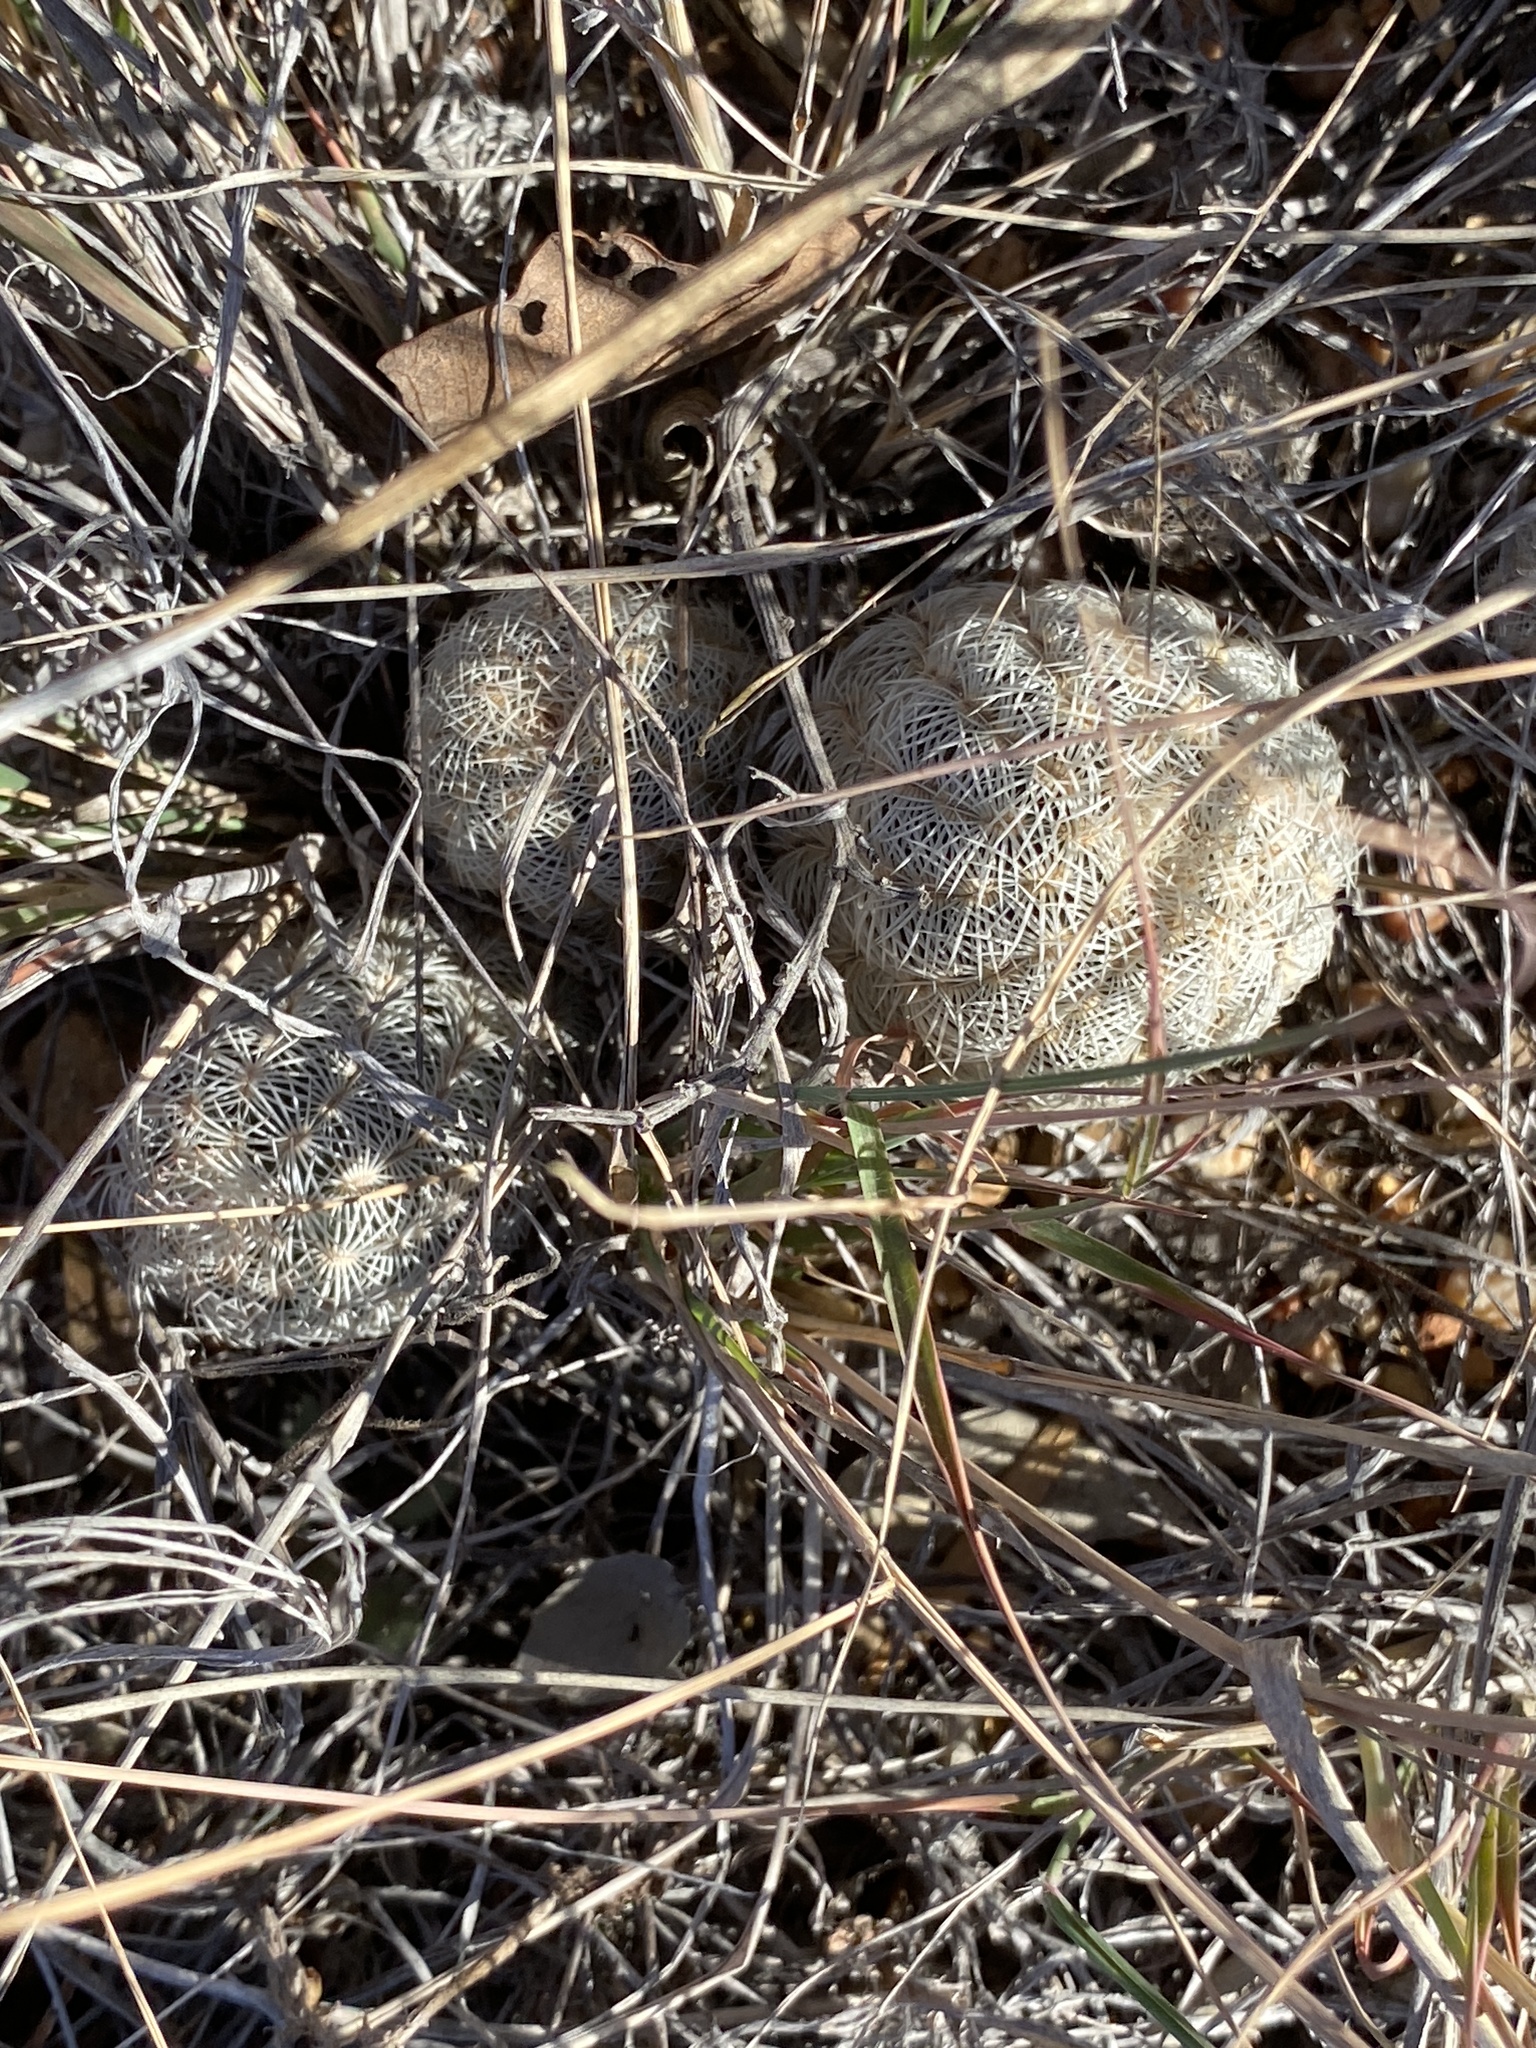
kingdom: Plantae
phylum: Tracheophyta
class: Magnoliopsida
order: Caryophyllales
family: Cactaceae
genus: Echinocereus
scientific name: Echinocereus reichenbachii
